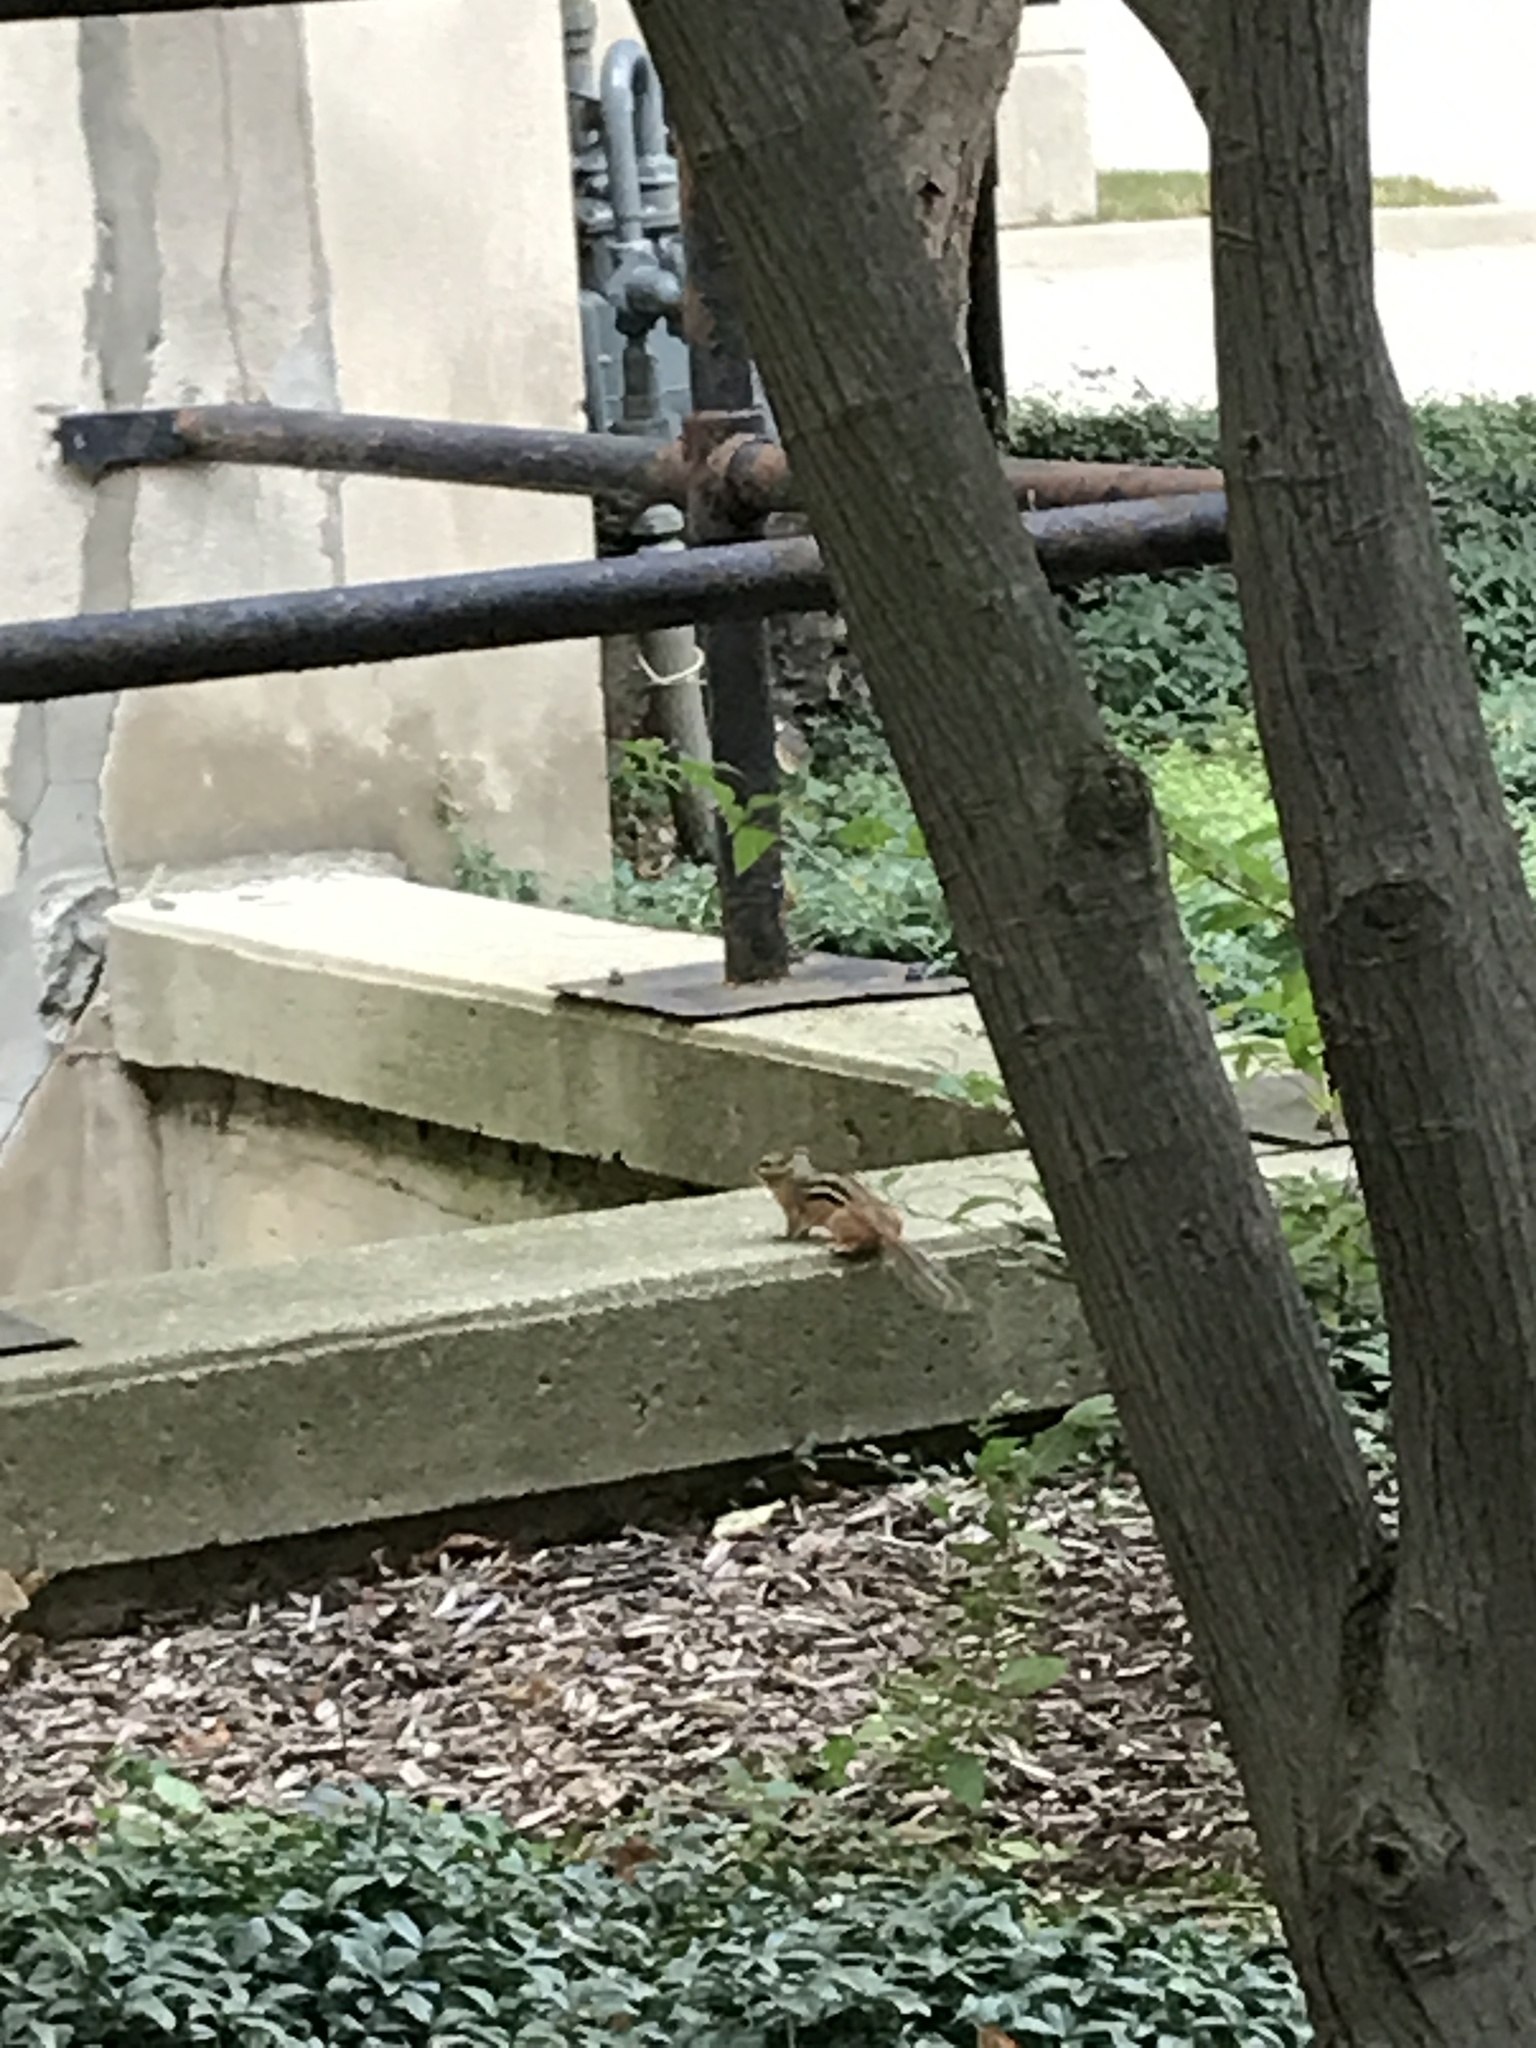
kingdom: Animalia
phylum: Chordata
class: Mammalia
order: Rodentia
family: Sciuridae
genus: Tamias
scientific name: Tamias striatus
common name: Eastern chipmunk
